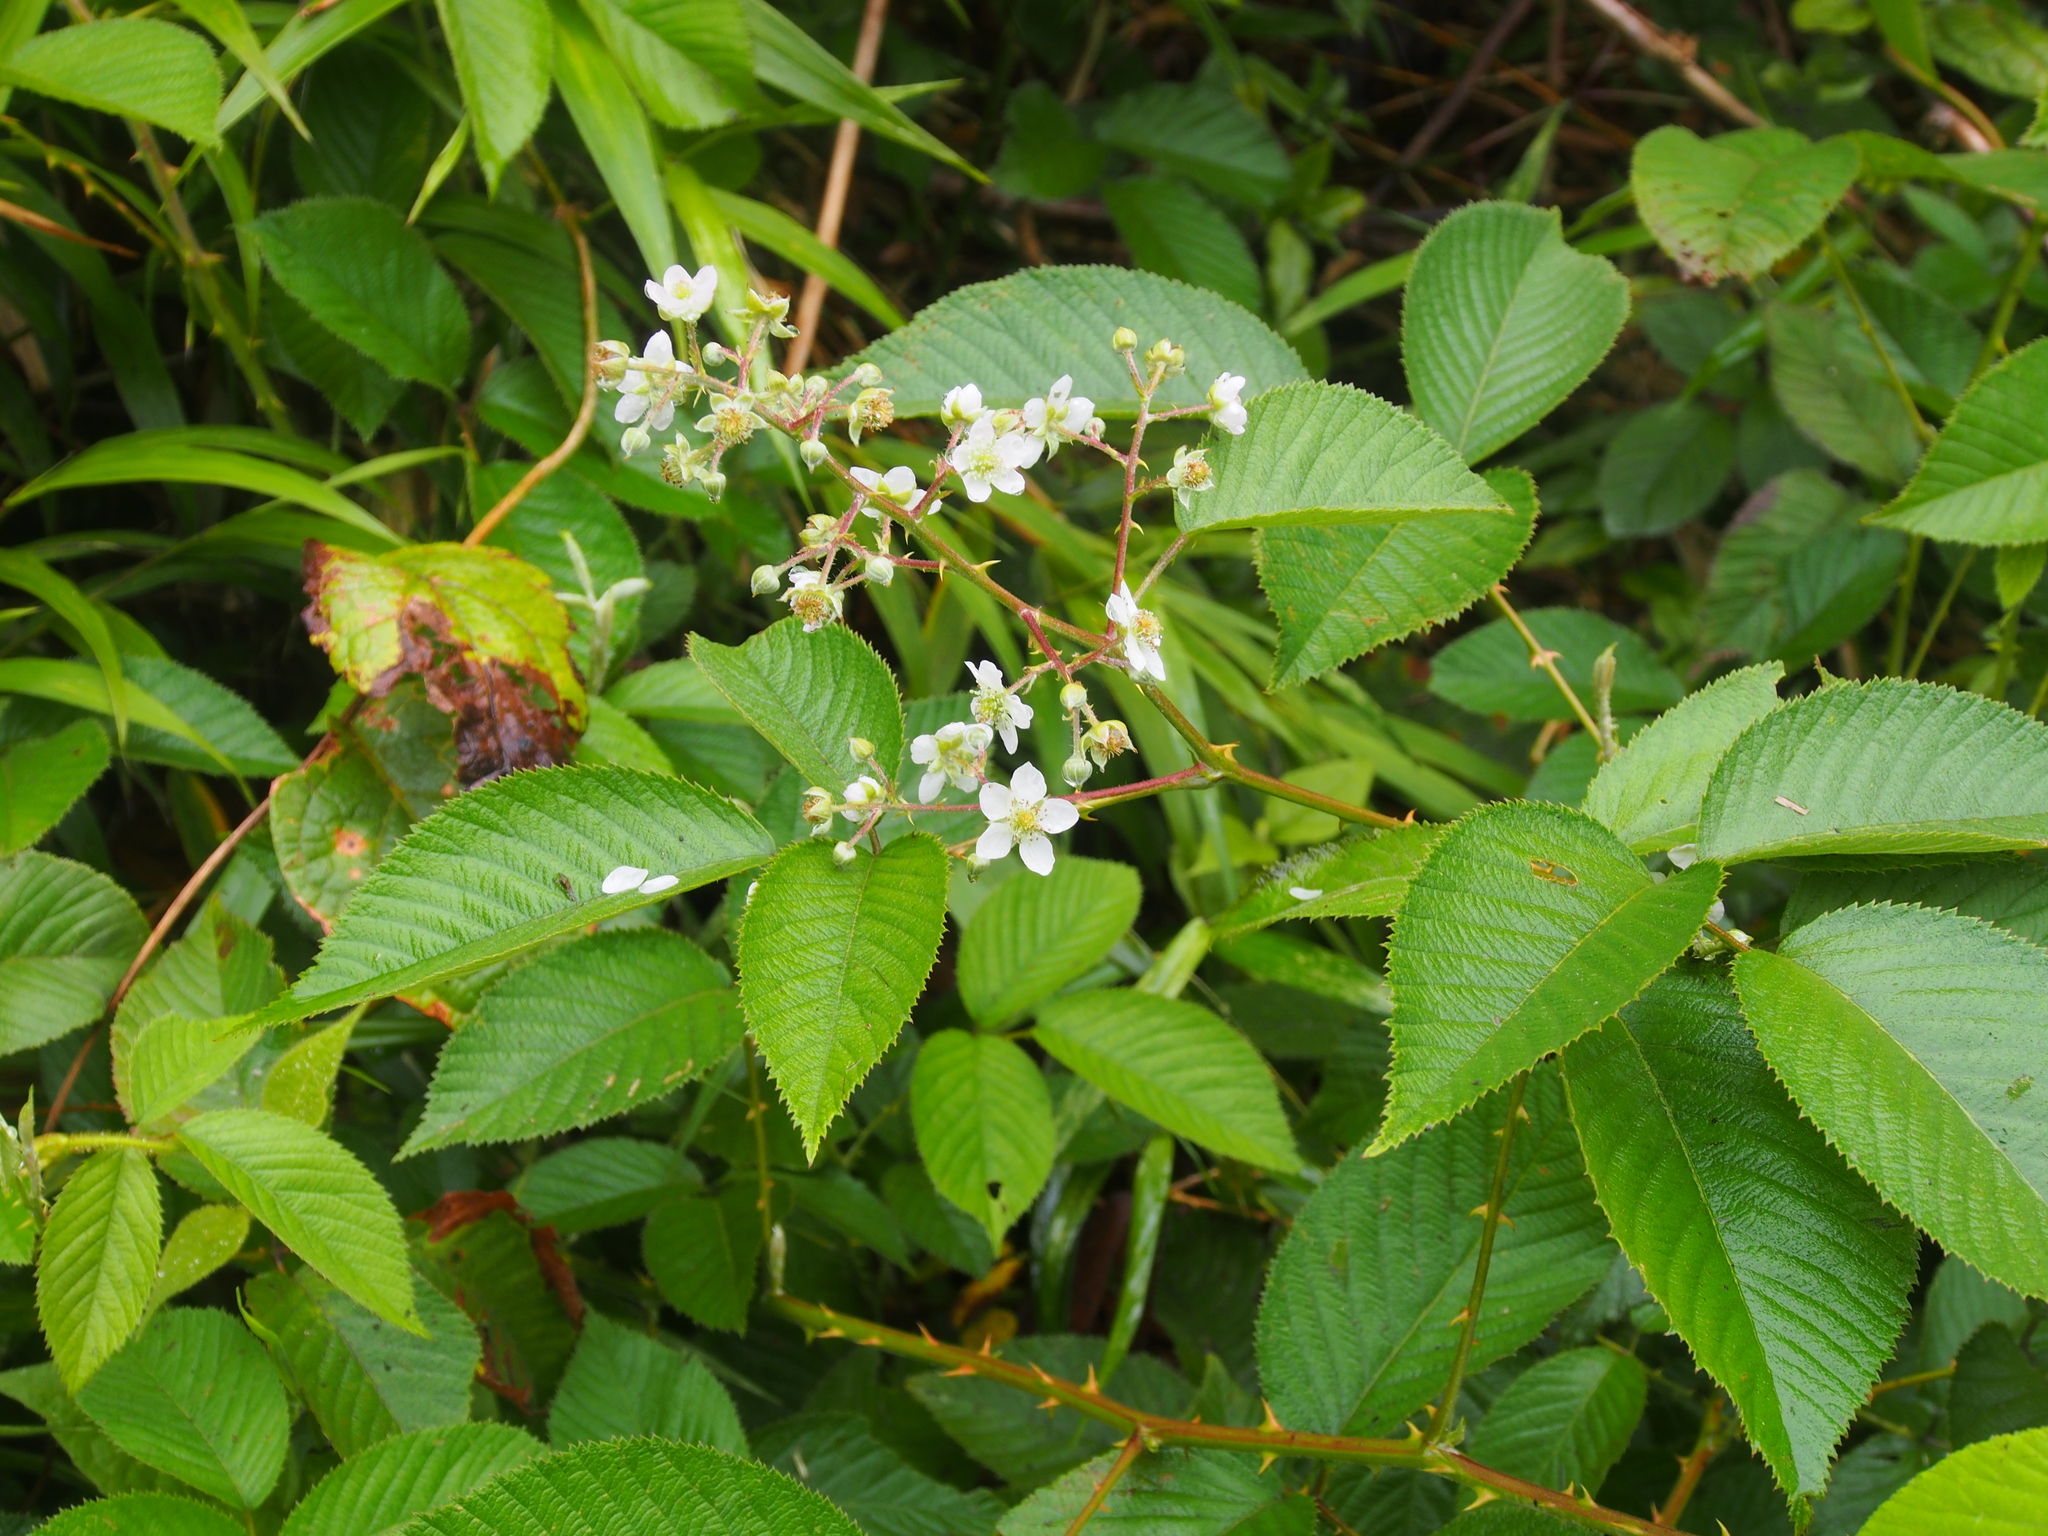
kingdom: Plantae
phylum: Tracheophyta
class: Magnoliopsida
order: Rosales
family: Rosaceae
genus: Rubus
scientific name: Rubus urticifolius
